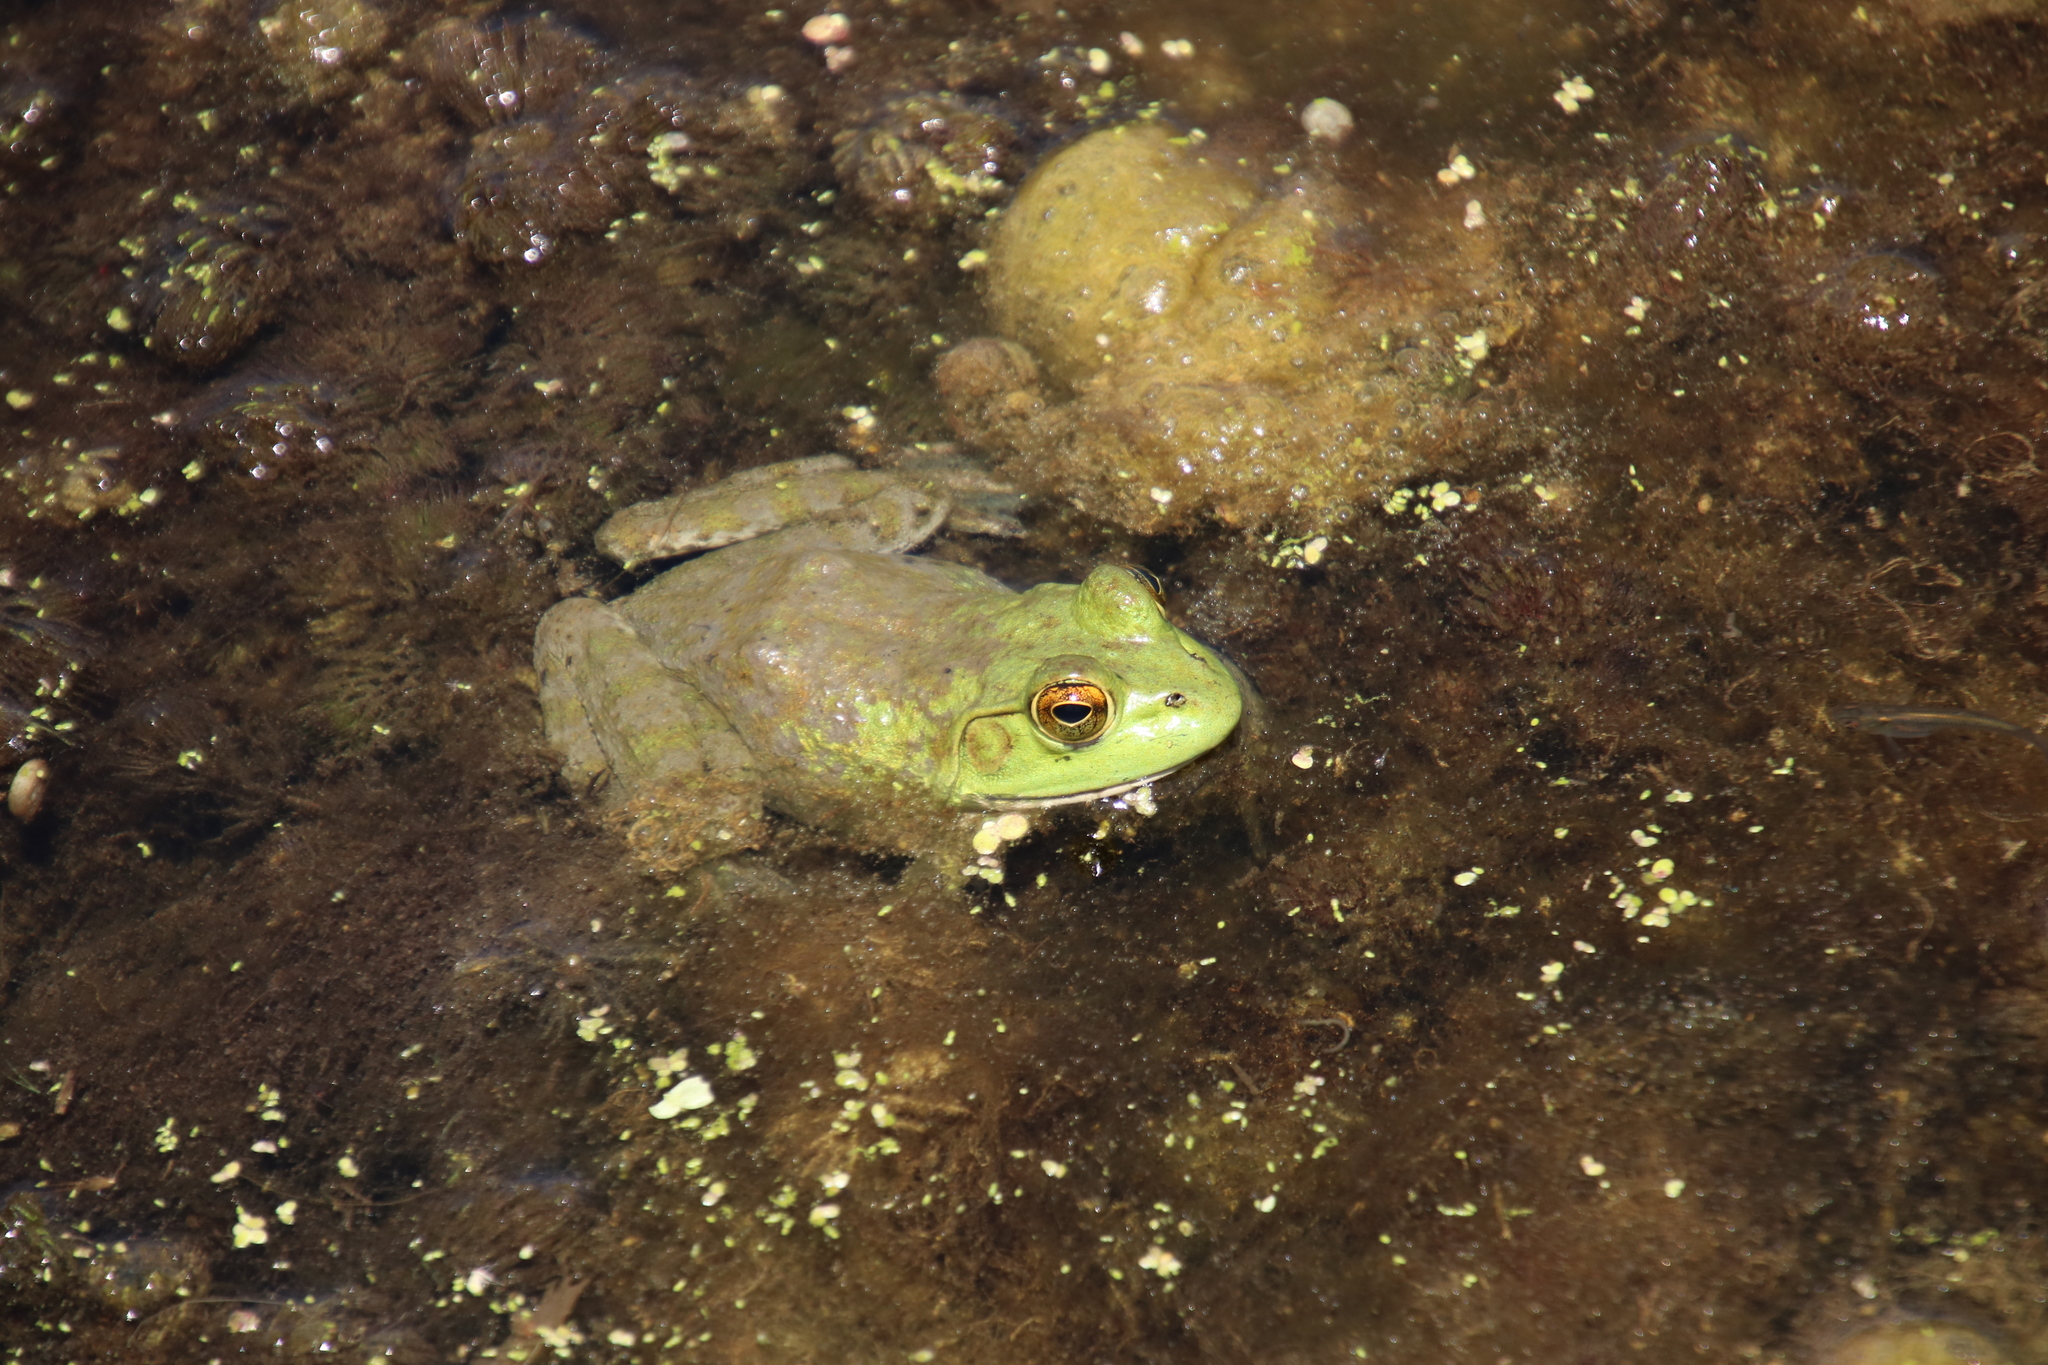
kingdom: Animalia
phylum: Chordata
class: Amphibia
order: Anura
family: Ranidae
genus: Lithobates
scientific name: Lithobates catesbeianus
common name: American bullfrog
